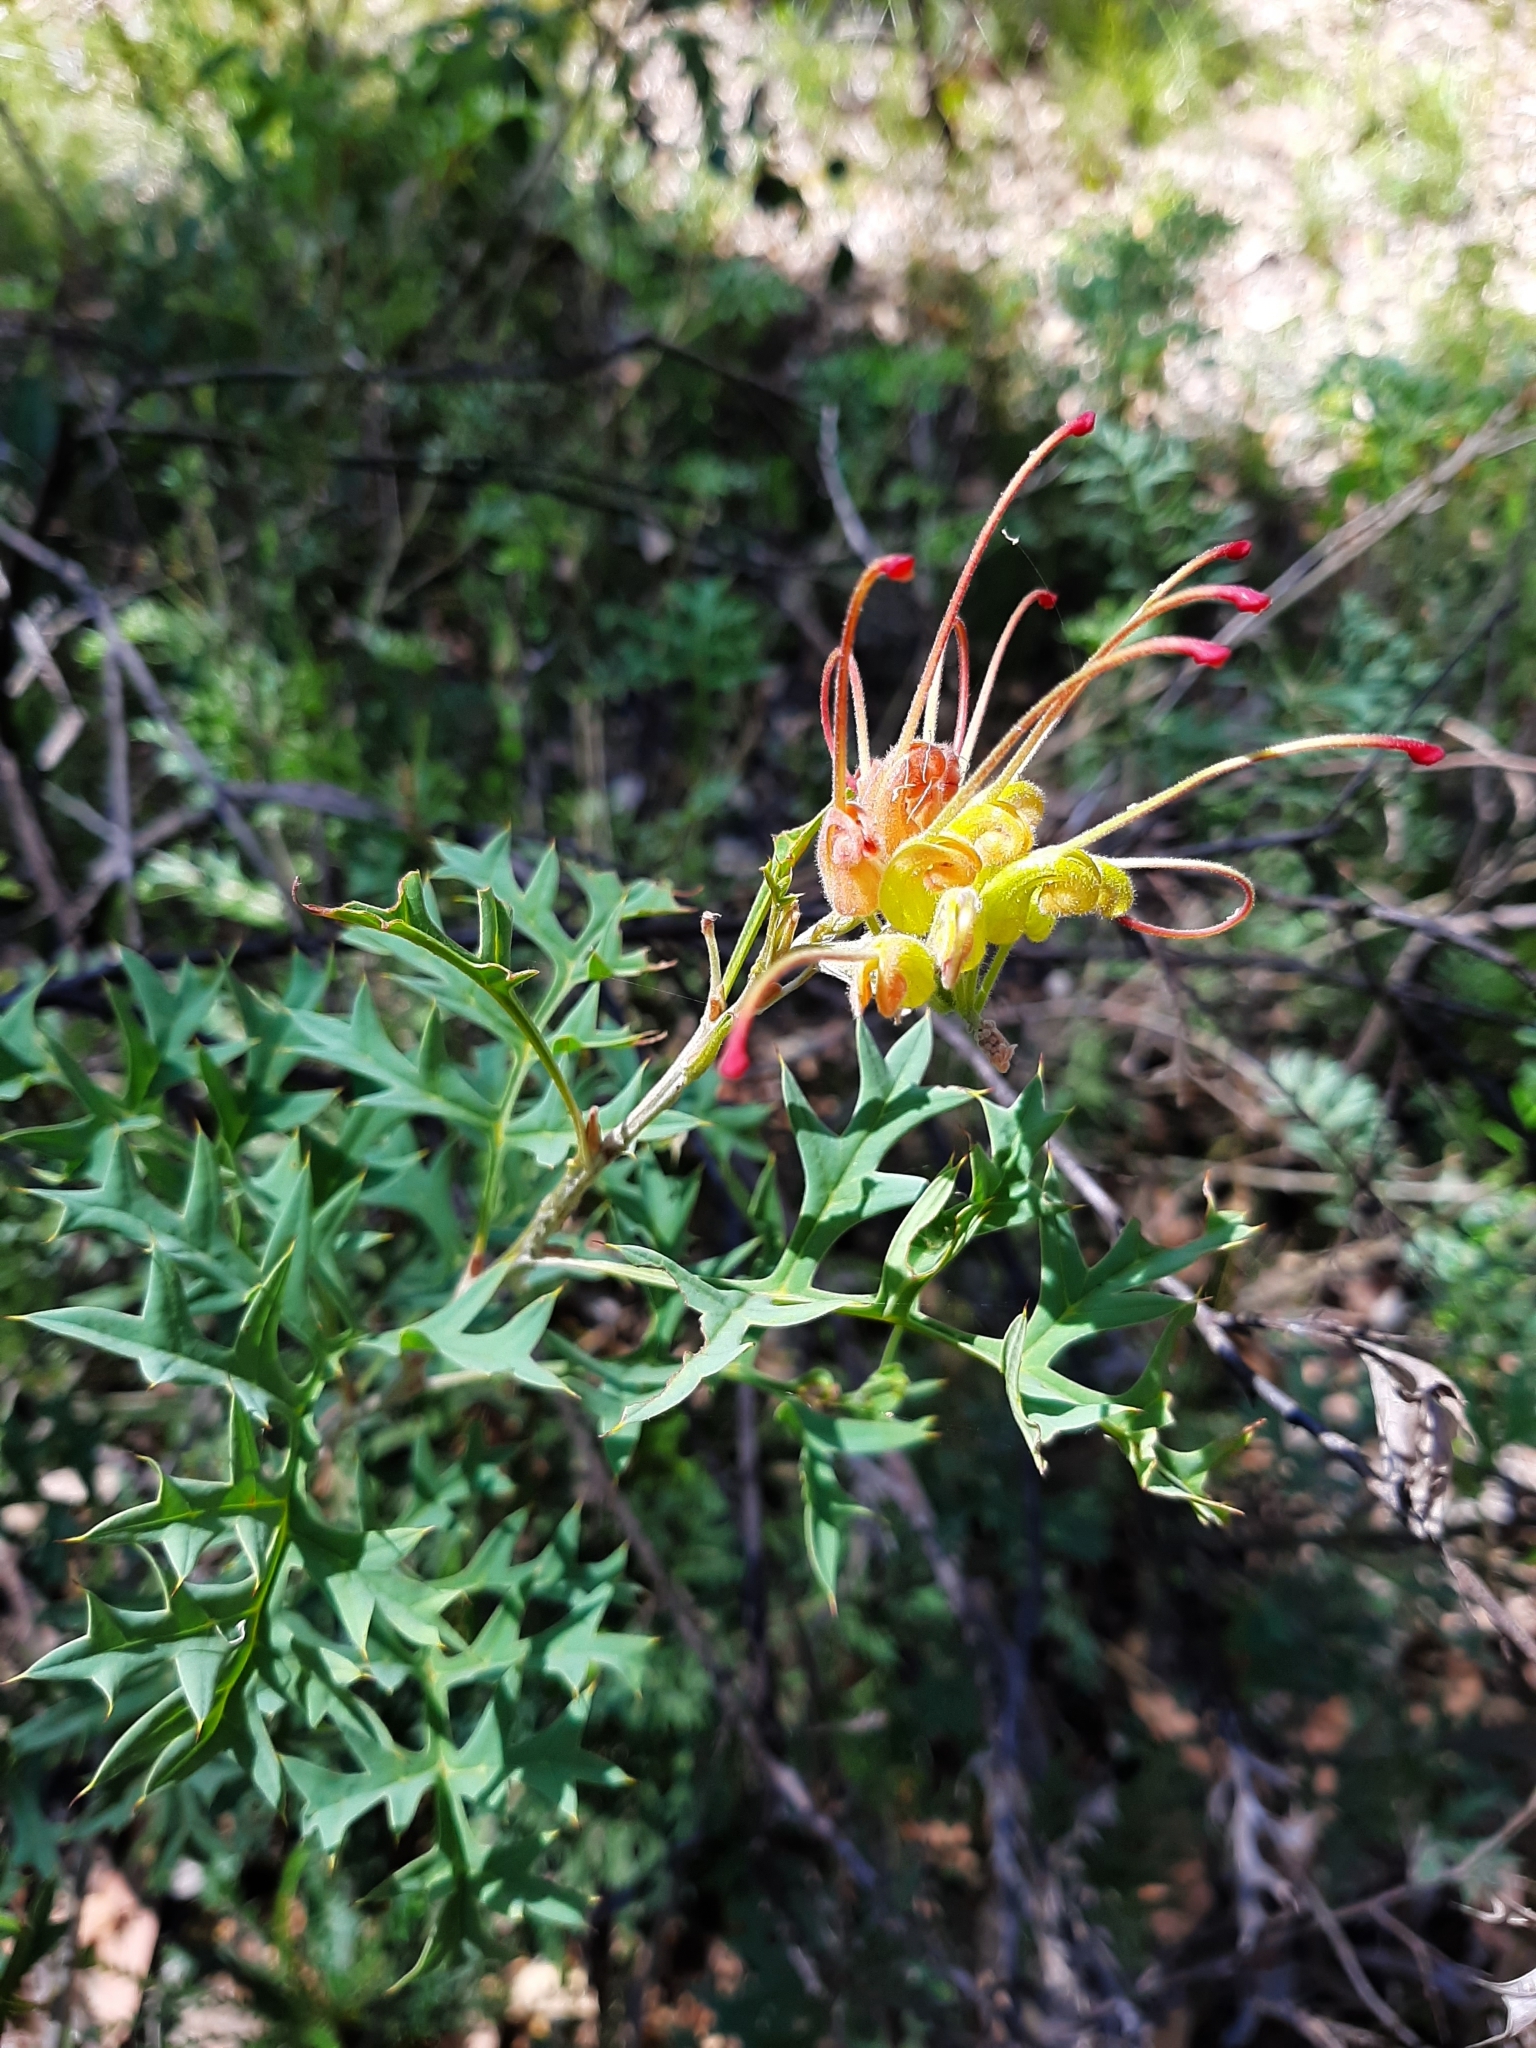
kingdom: Plantae
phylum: Tracheophyta
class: Magnoliopsida
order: Proteales
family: Proteaceae
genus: Grevillea
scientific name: Grevillea bipinnatifida
